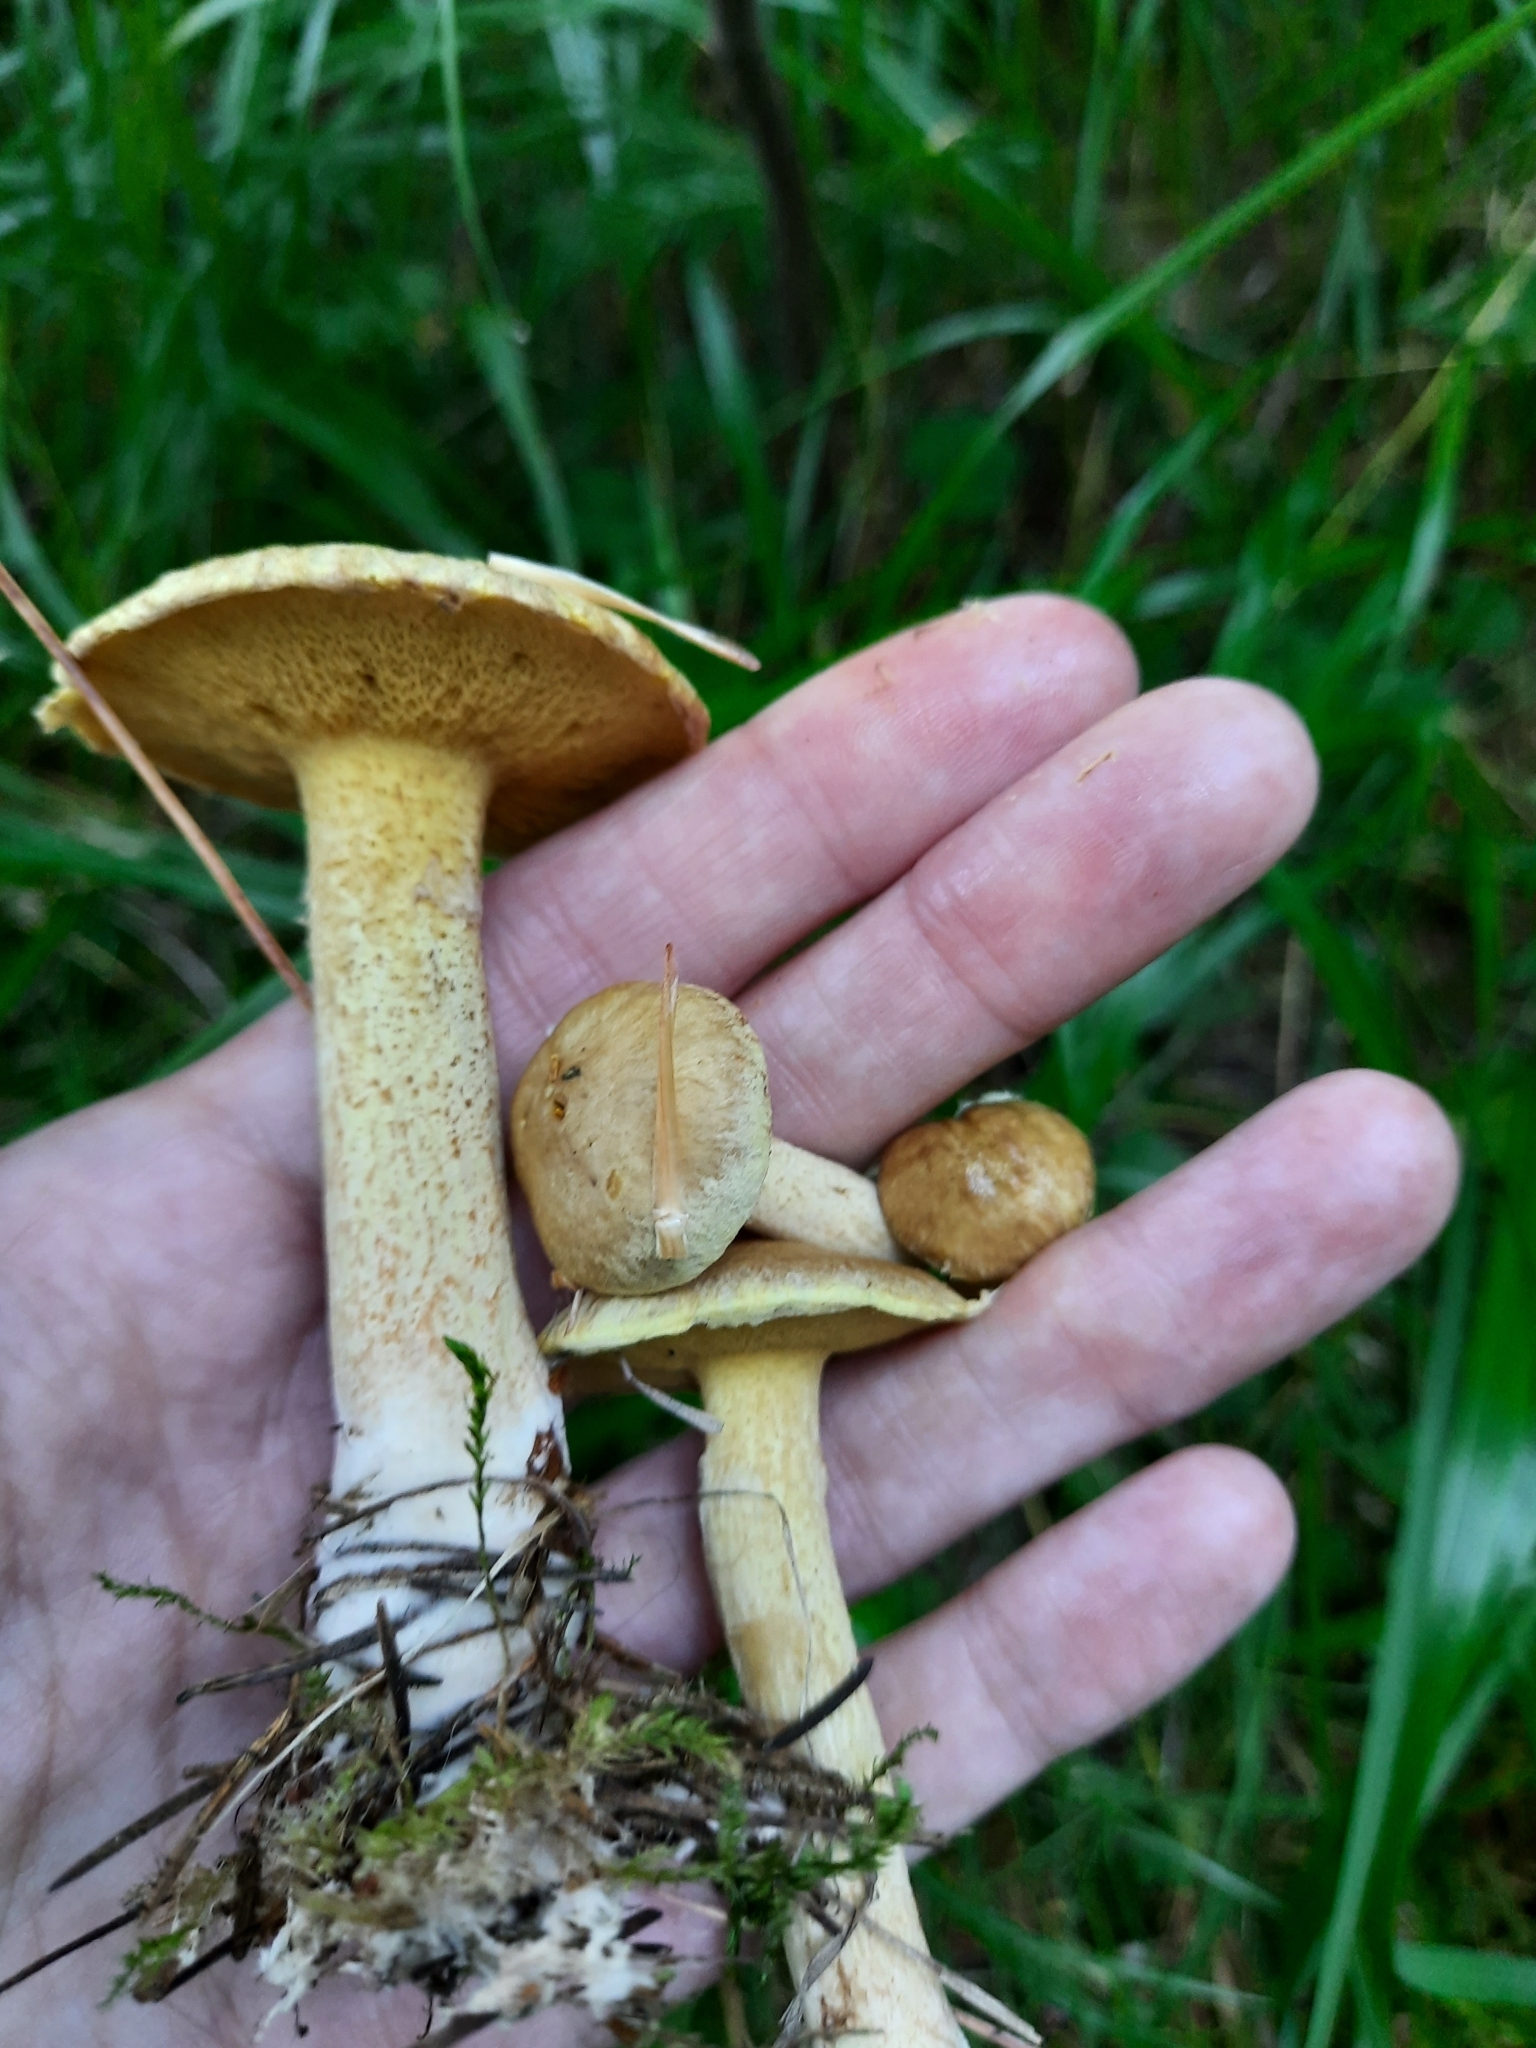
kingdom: Fungi
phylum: Basidiomycota
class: Agaricomycetes
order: Boletales
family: Suillaceae
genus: Suillus
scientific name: Suillus americanus
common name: Chicken fat mushroom
